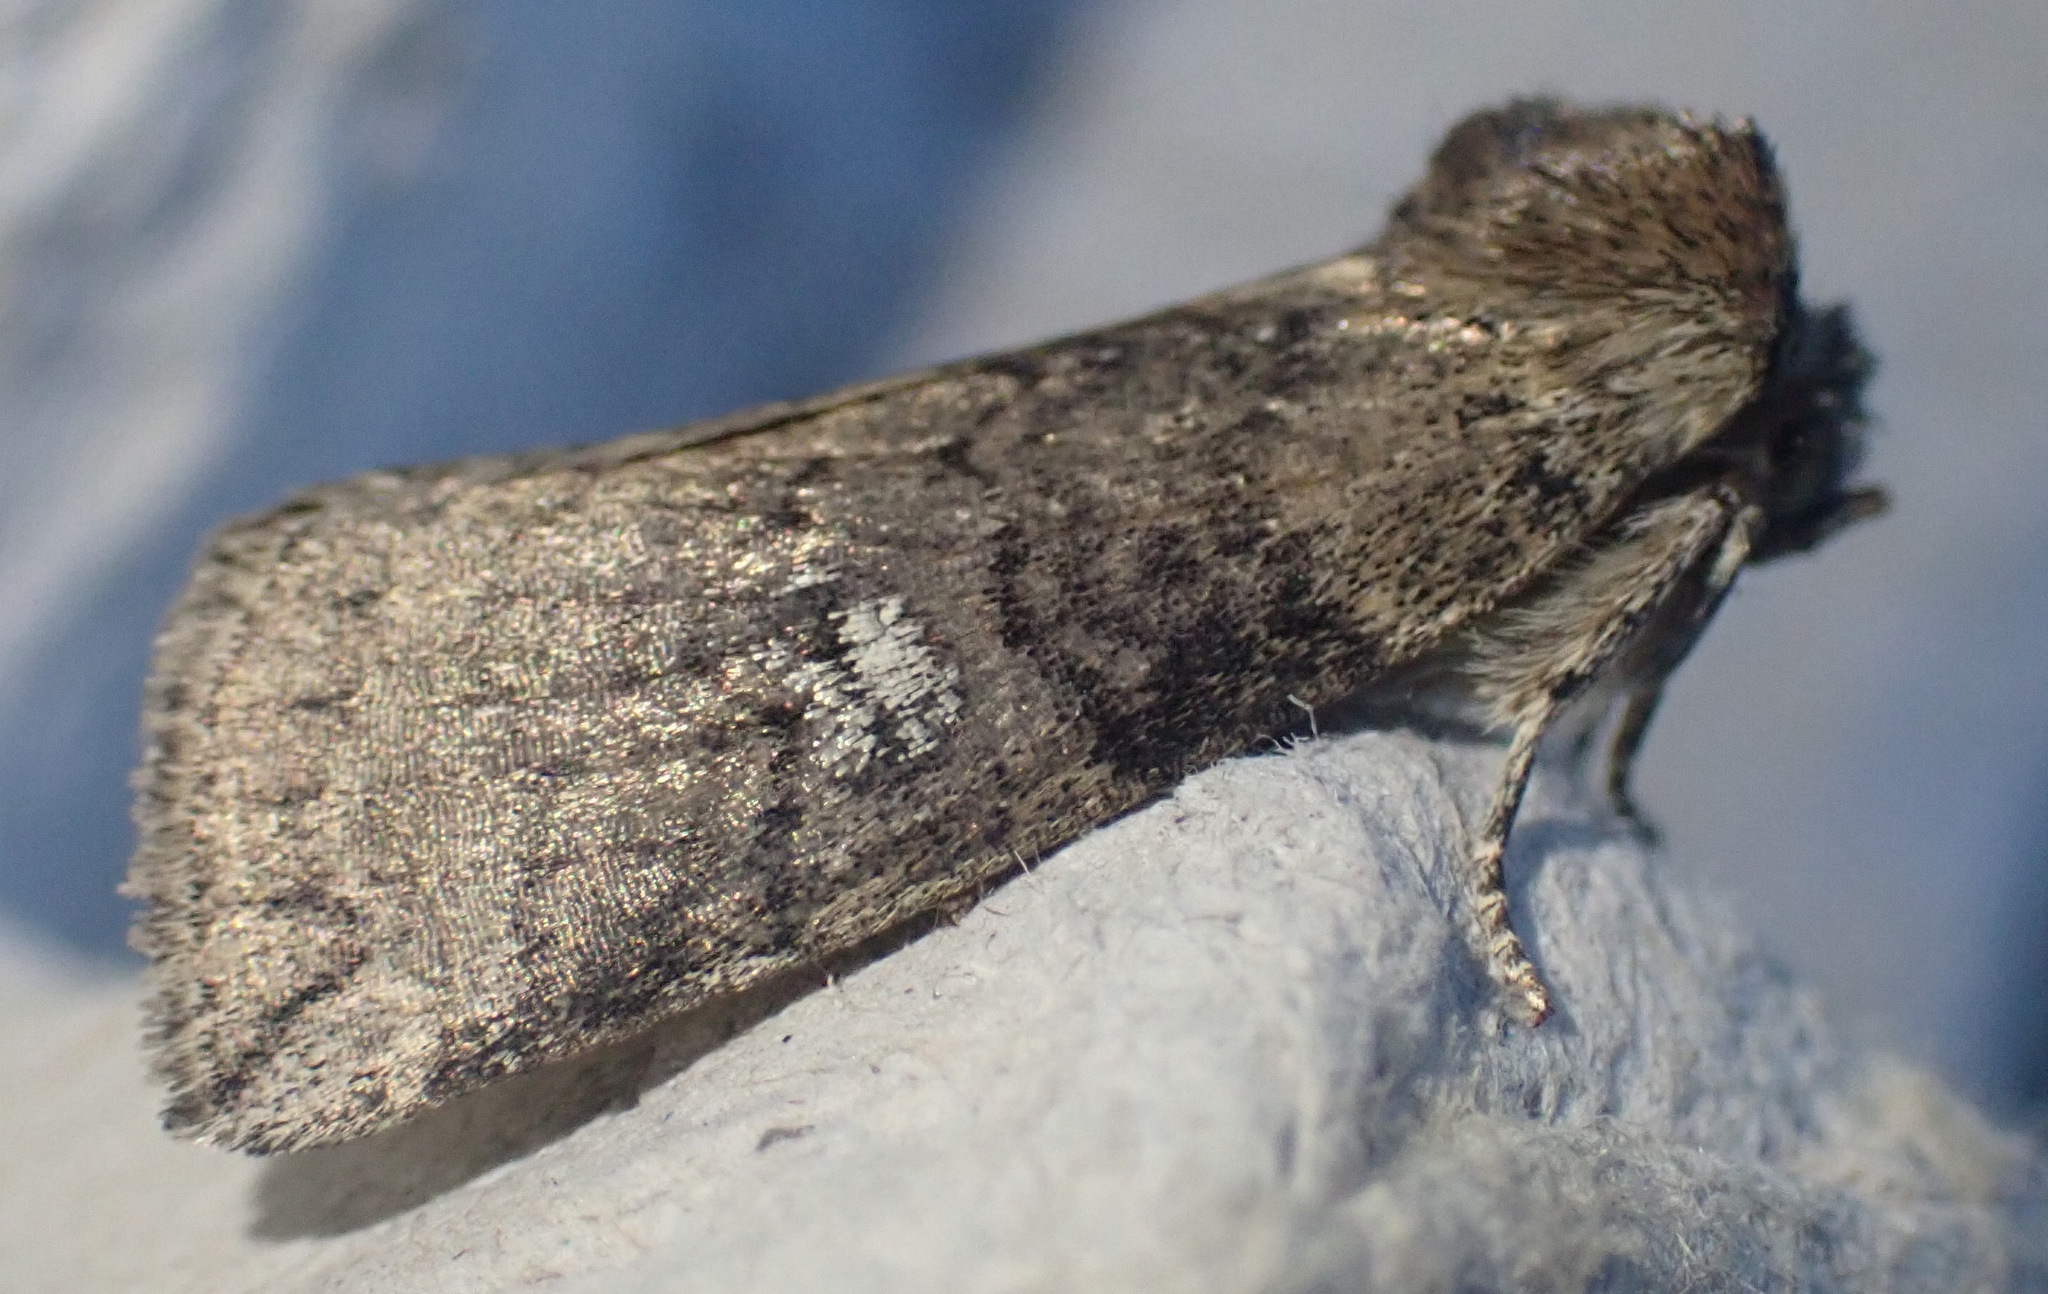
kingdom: Animalia
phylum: Arthropoda
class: Insecta
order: Lepidoptera
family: Drepanidae
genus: Tethea
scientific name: Tethea or
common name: Poplar lutestring
